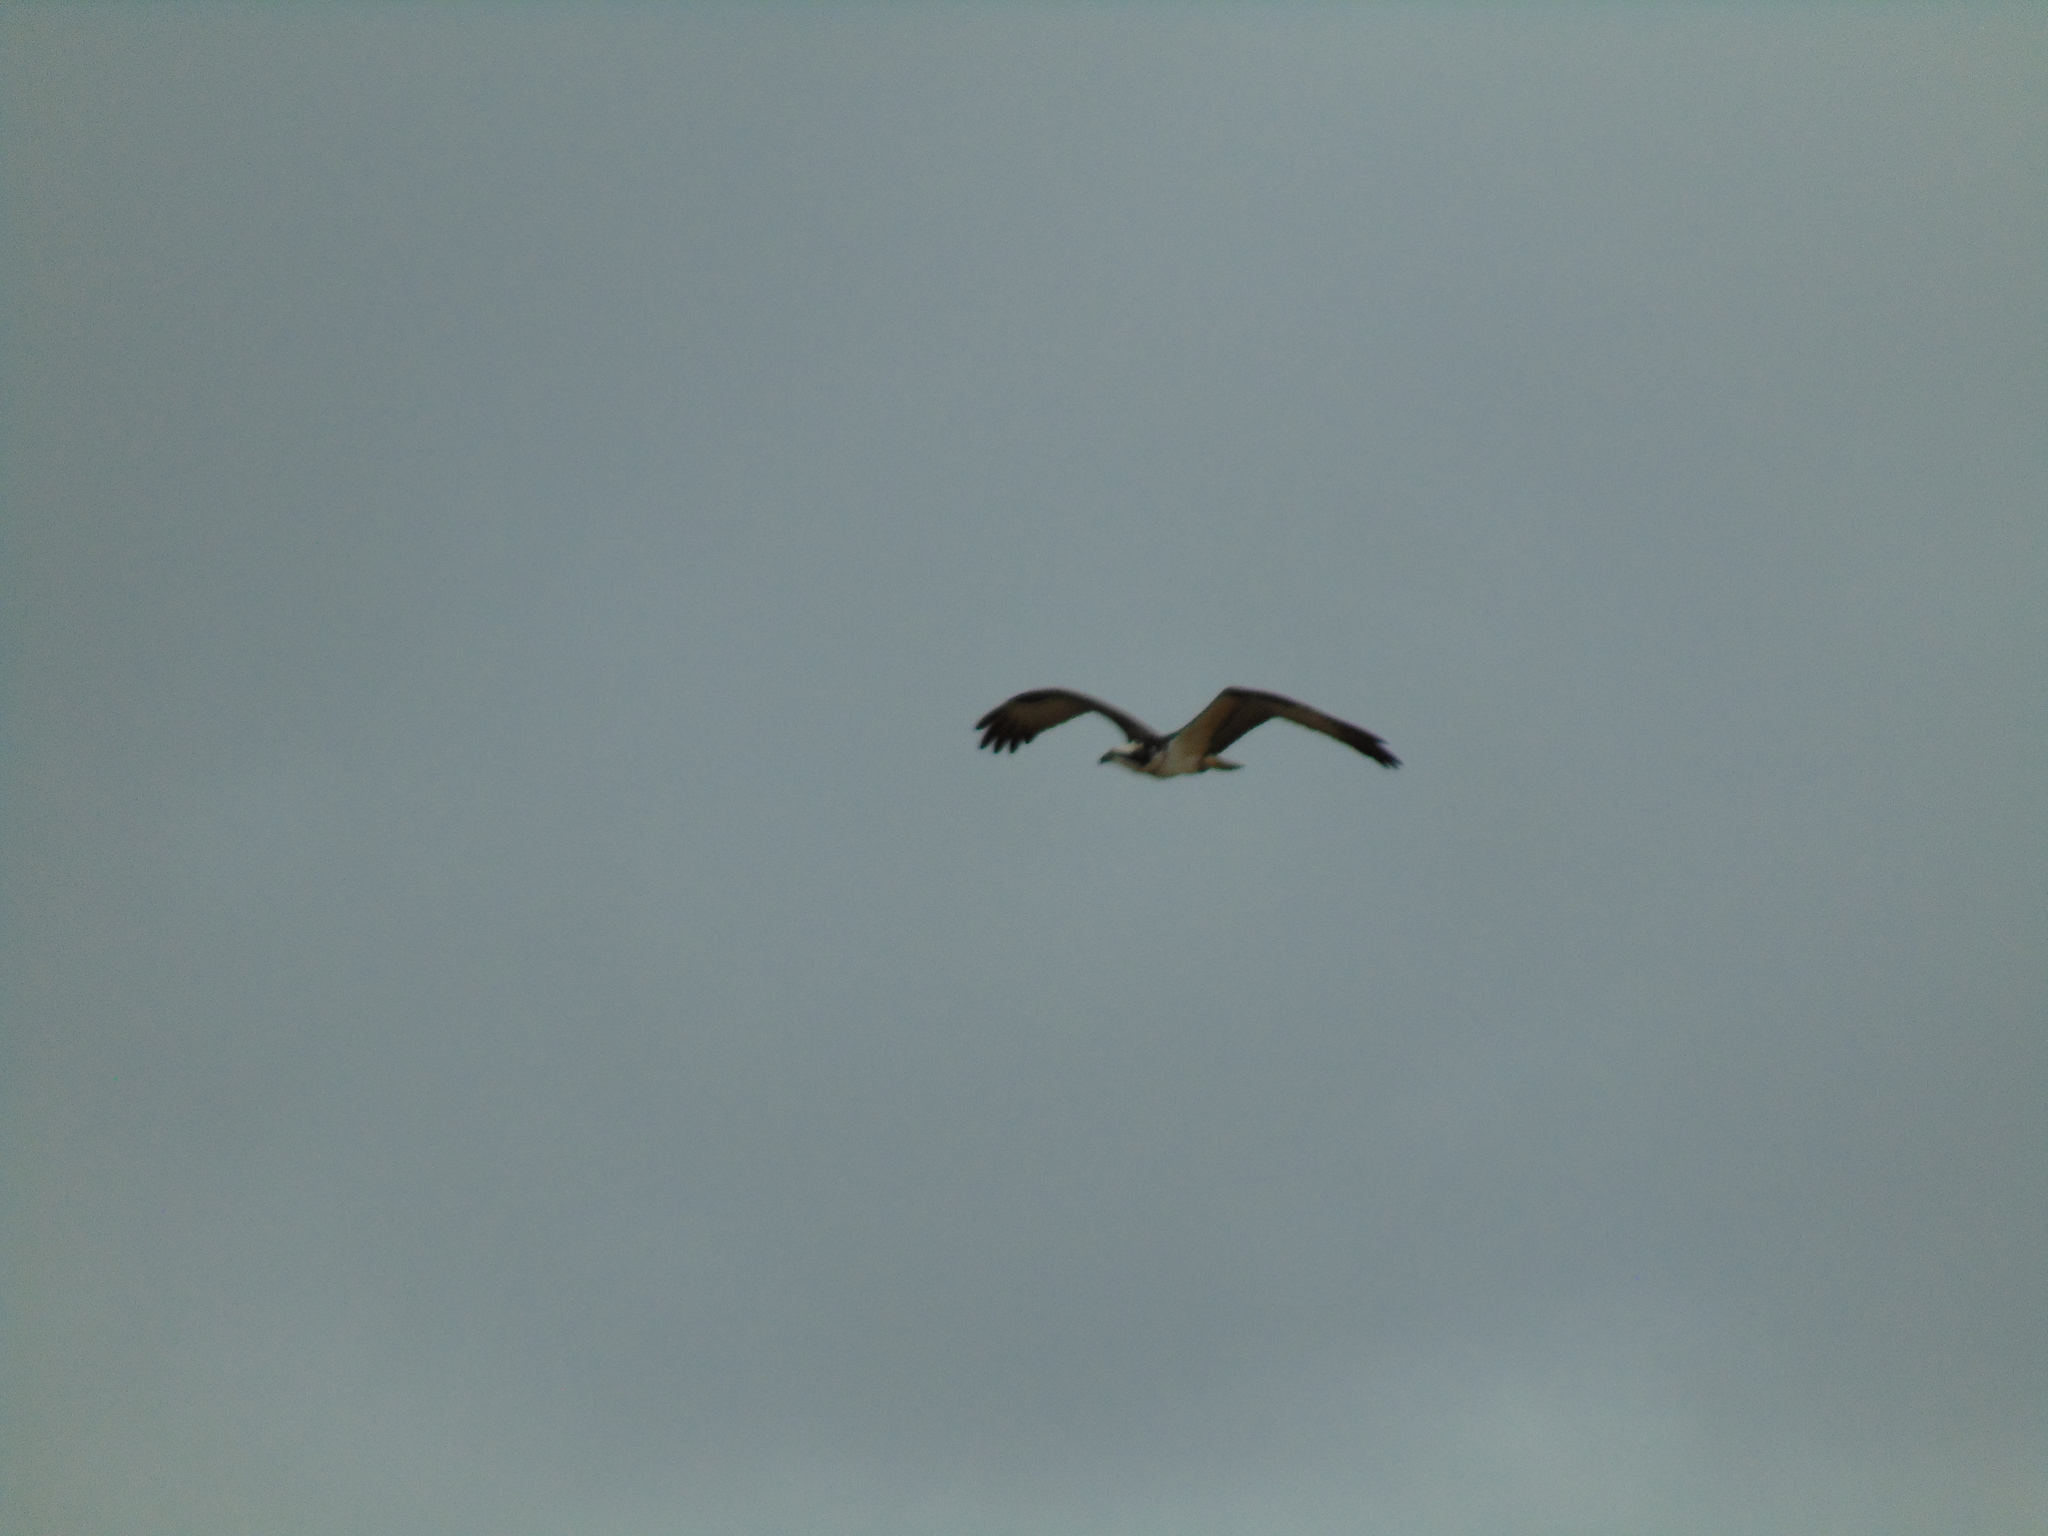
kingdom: Animalia
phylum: Chordata
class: Aves
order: Accipitriformes
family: Pandionidae
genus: Pandion
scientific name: Pandion haliaetus
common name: Osprey
